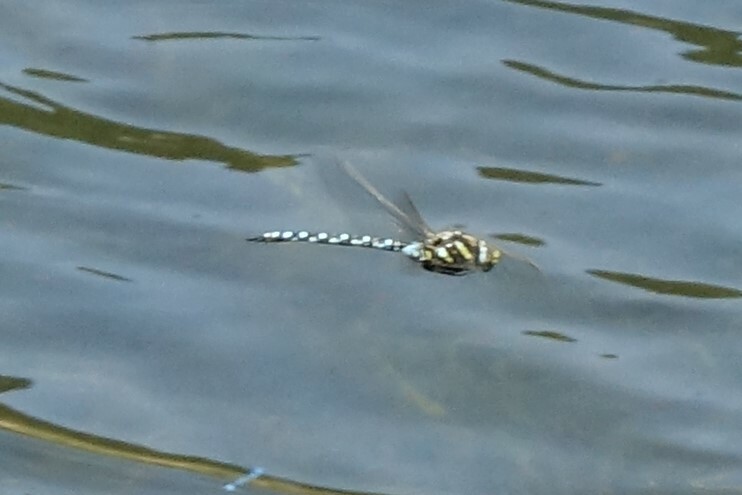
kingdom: Animalia
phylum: Arthropoda
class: Insecta
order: Odonata
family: Aeshnidae
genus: Aeshna
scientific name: Aeshna juncea
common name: Moorland hawker
